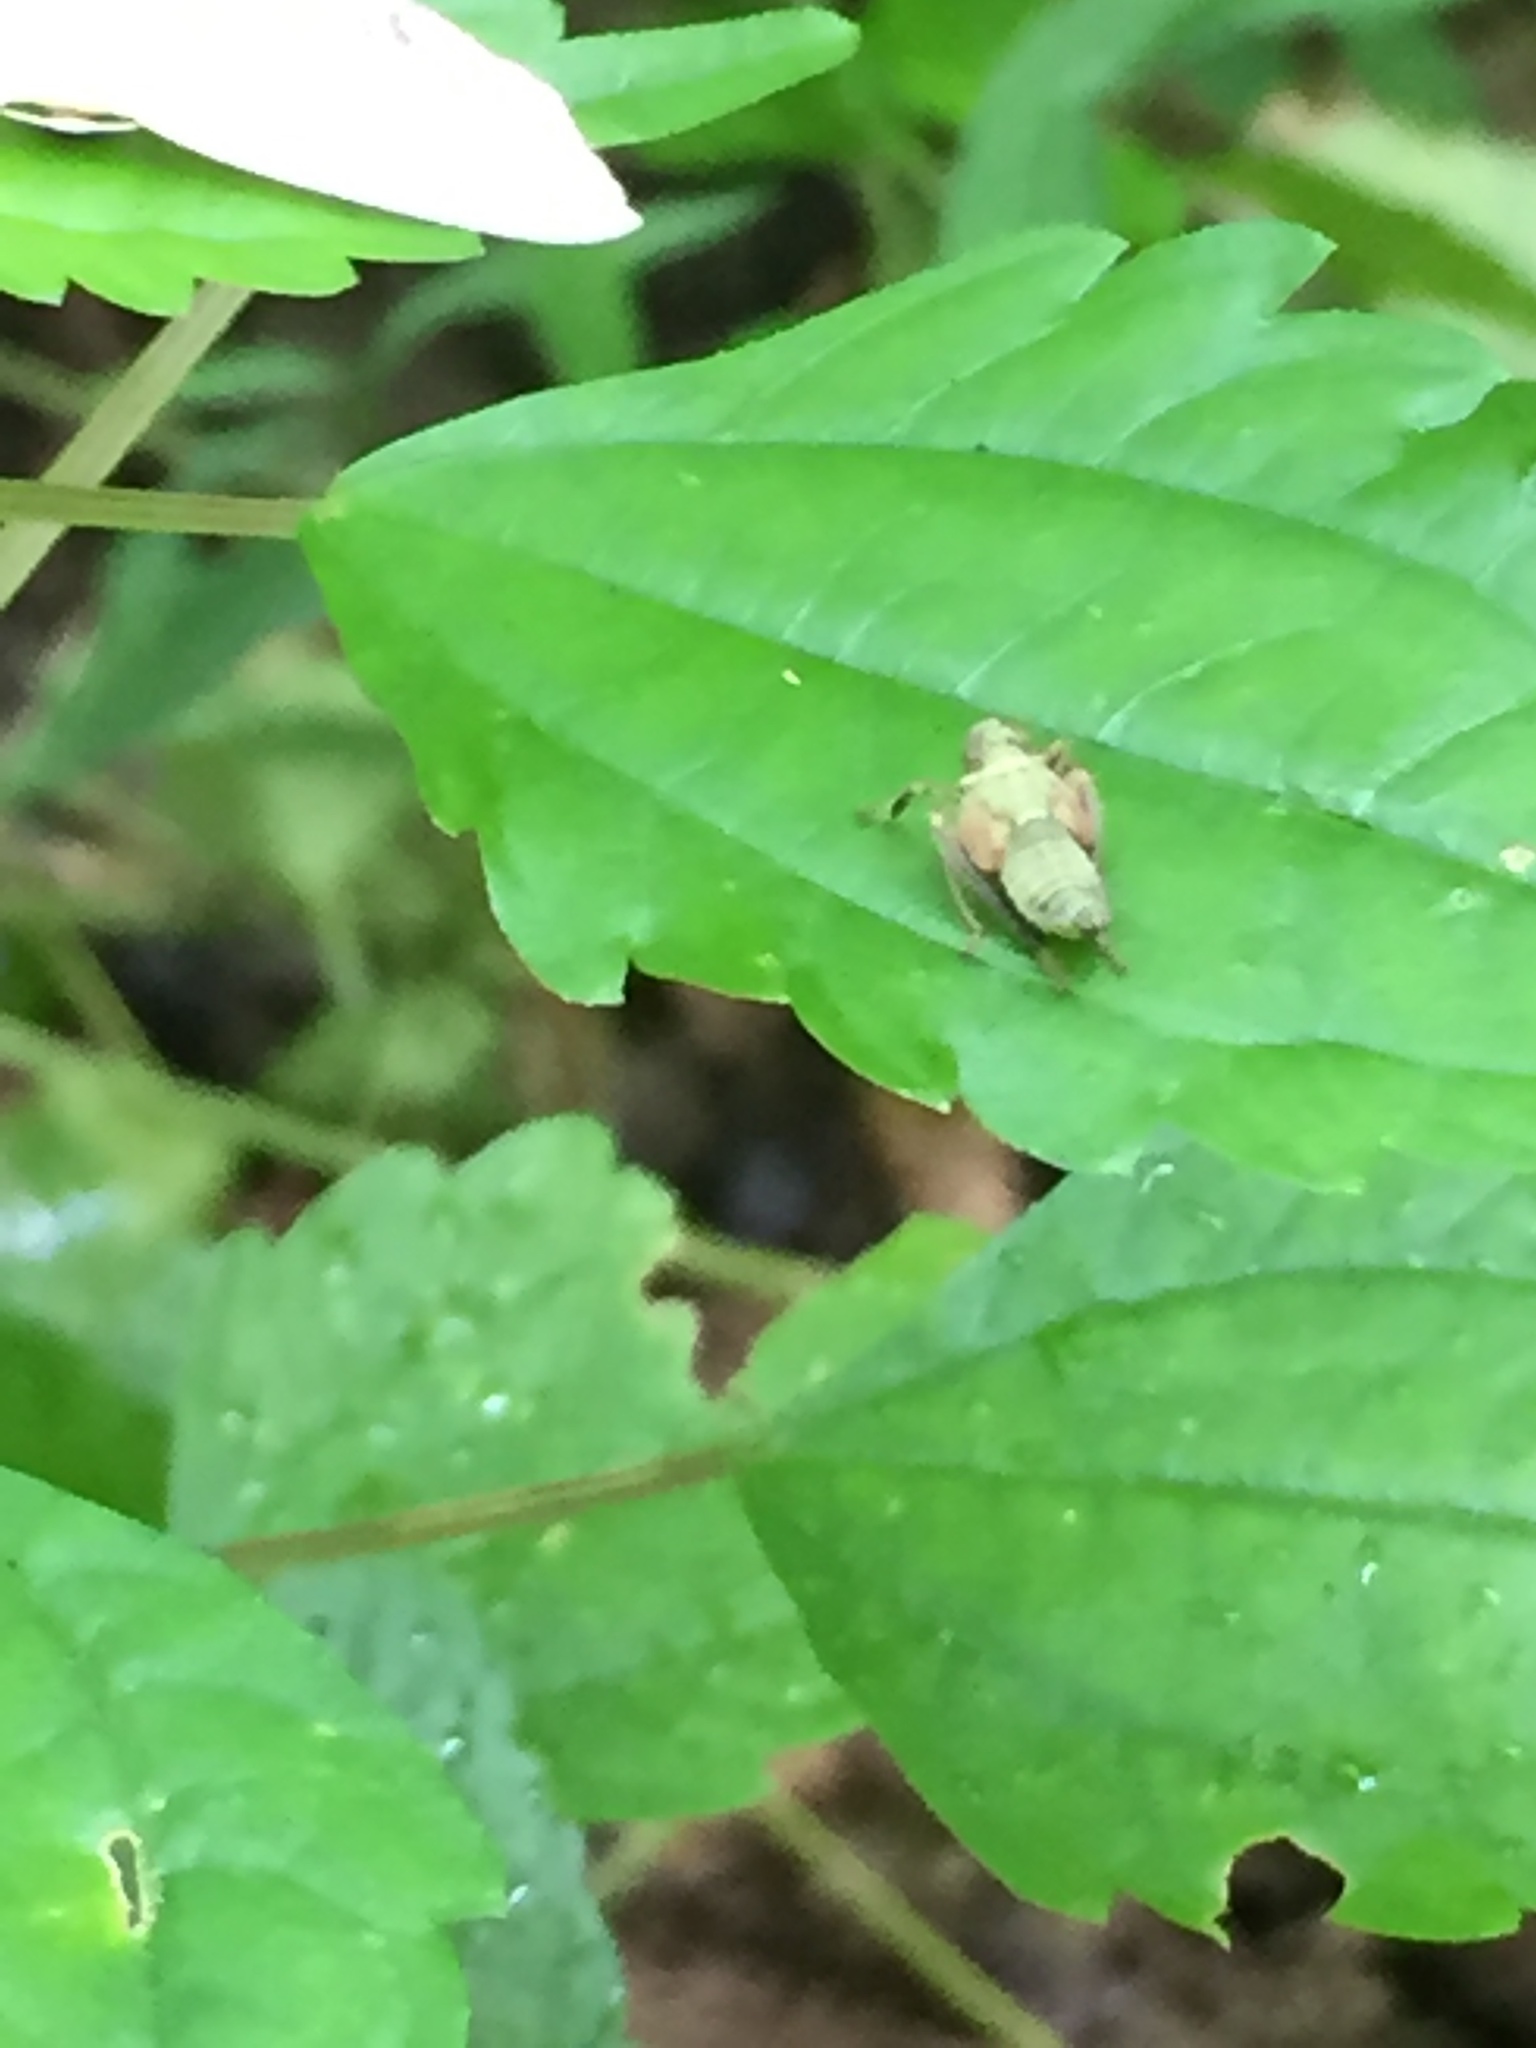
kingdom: Animalia
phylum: Arthropoda
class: Insecta
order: Hemiptera
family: Cicadellidae
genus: Jikradia
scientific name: Jikradia olitoria
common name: Coppery leafhopper
